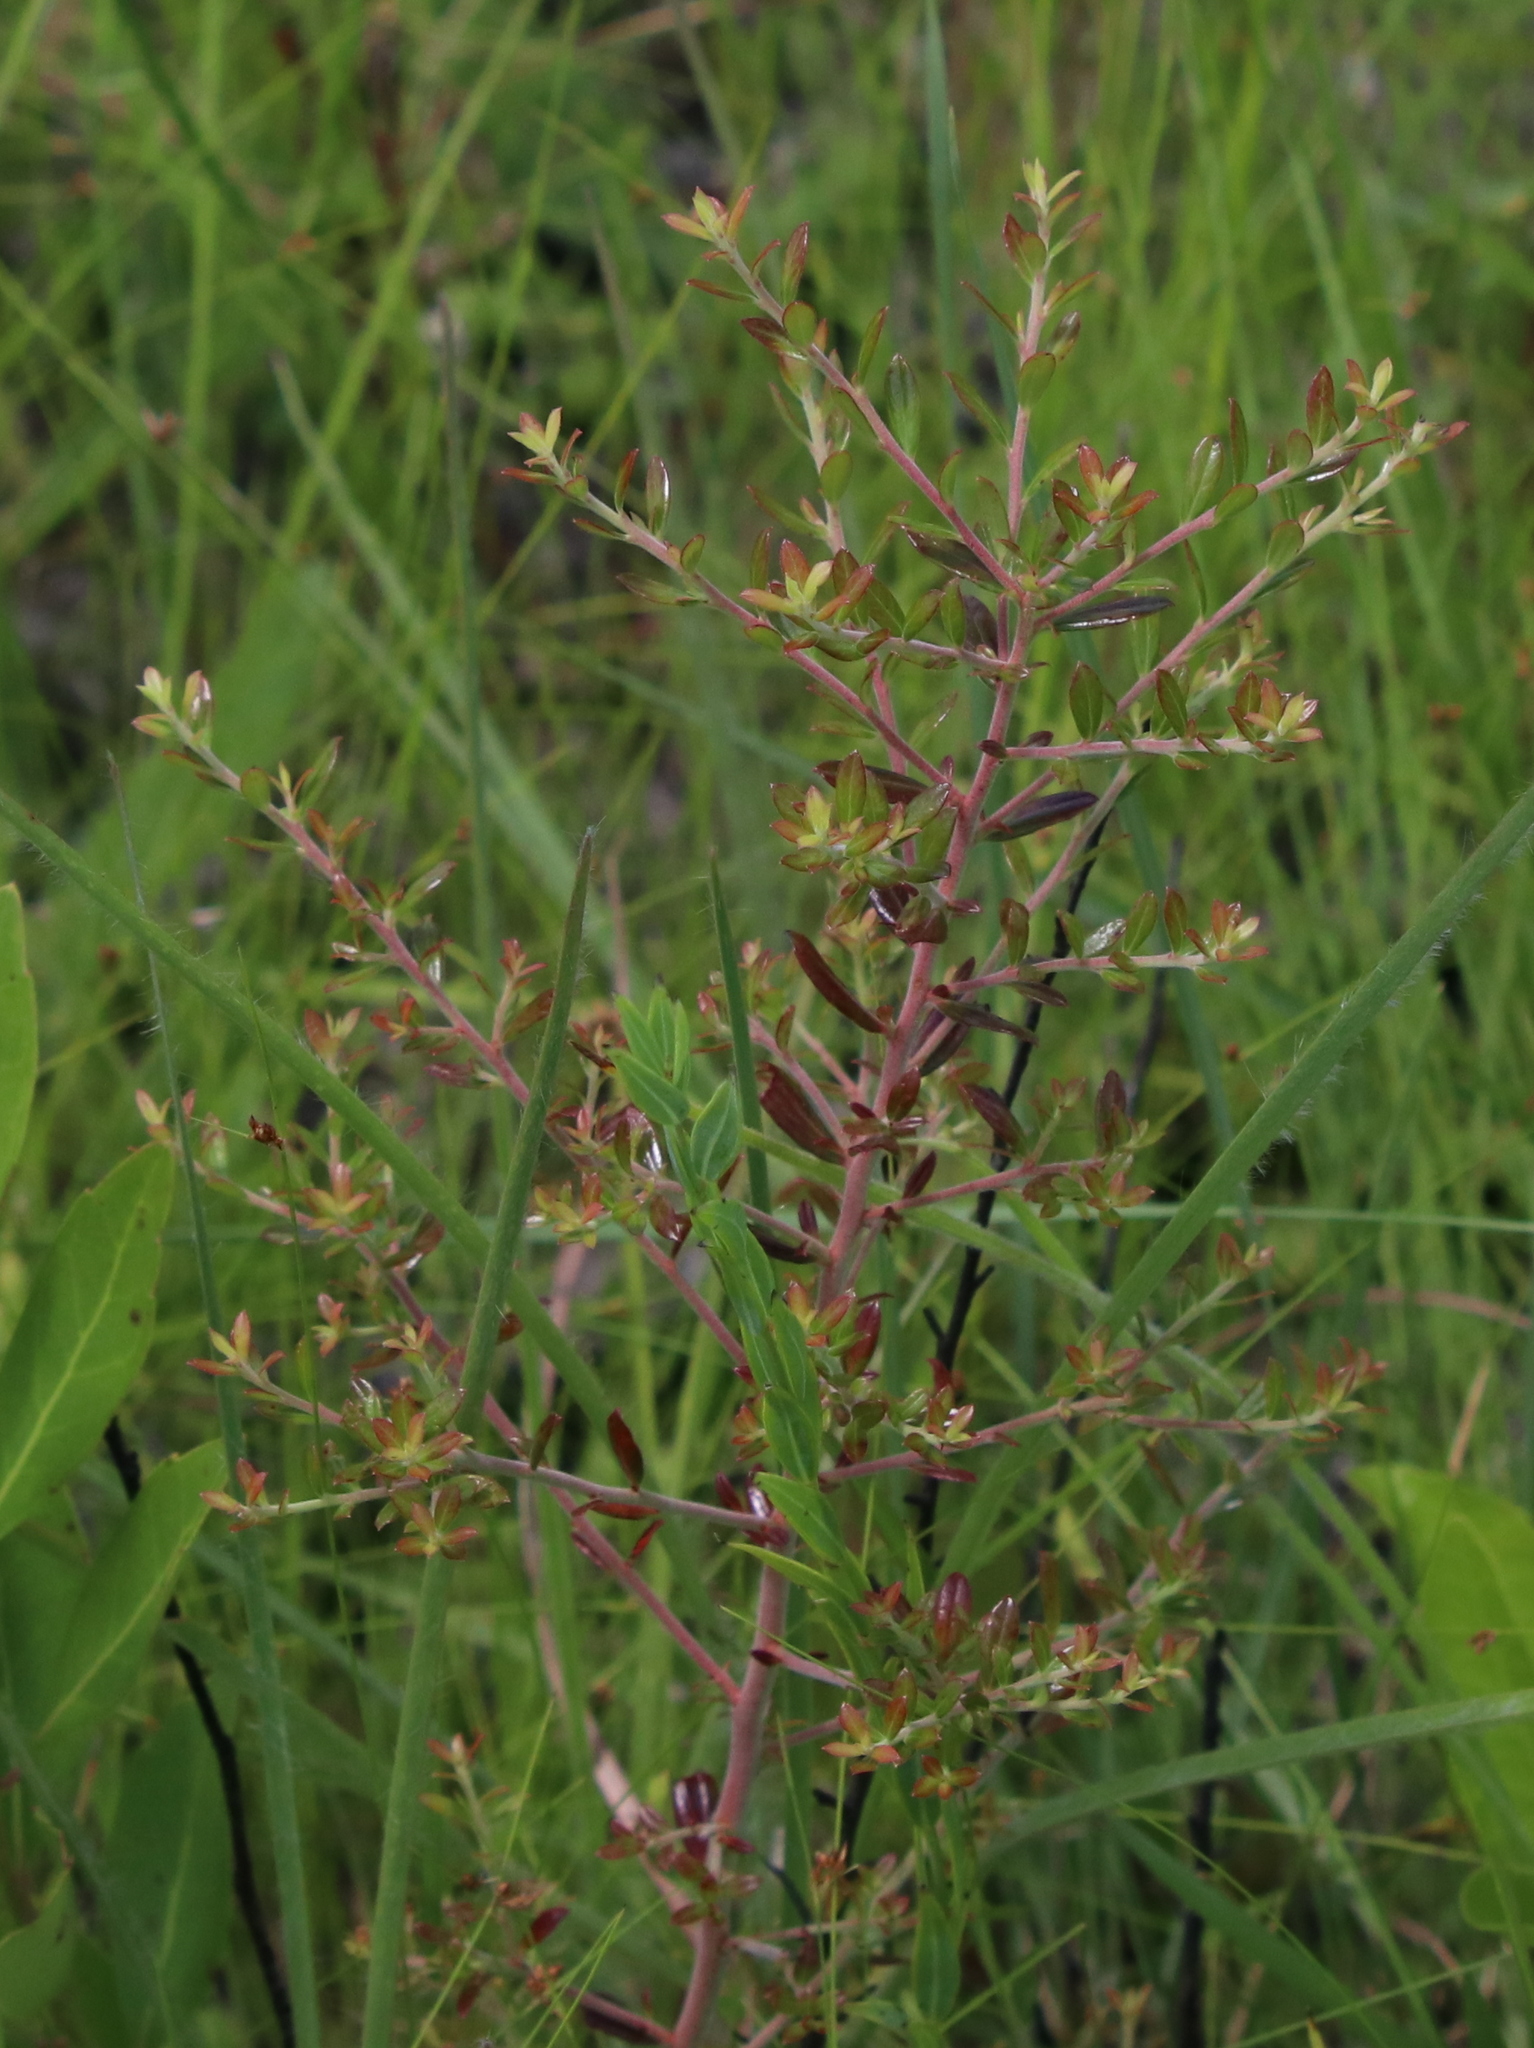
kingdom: Plantae
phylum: Tracheophyta
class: Magnoliopsida
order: Ericales
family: Ericaceae
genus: Vaccinium
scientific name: Vaccinium darrowii
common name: Darrow's blueberry
